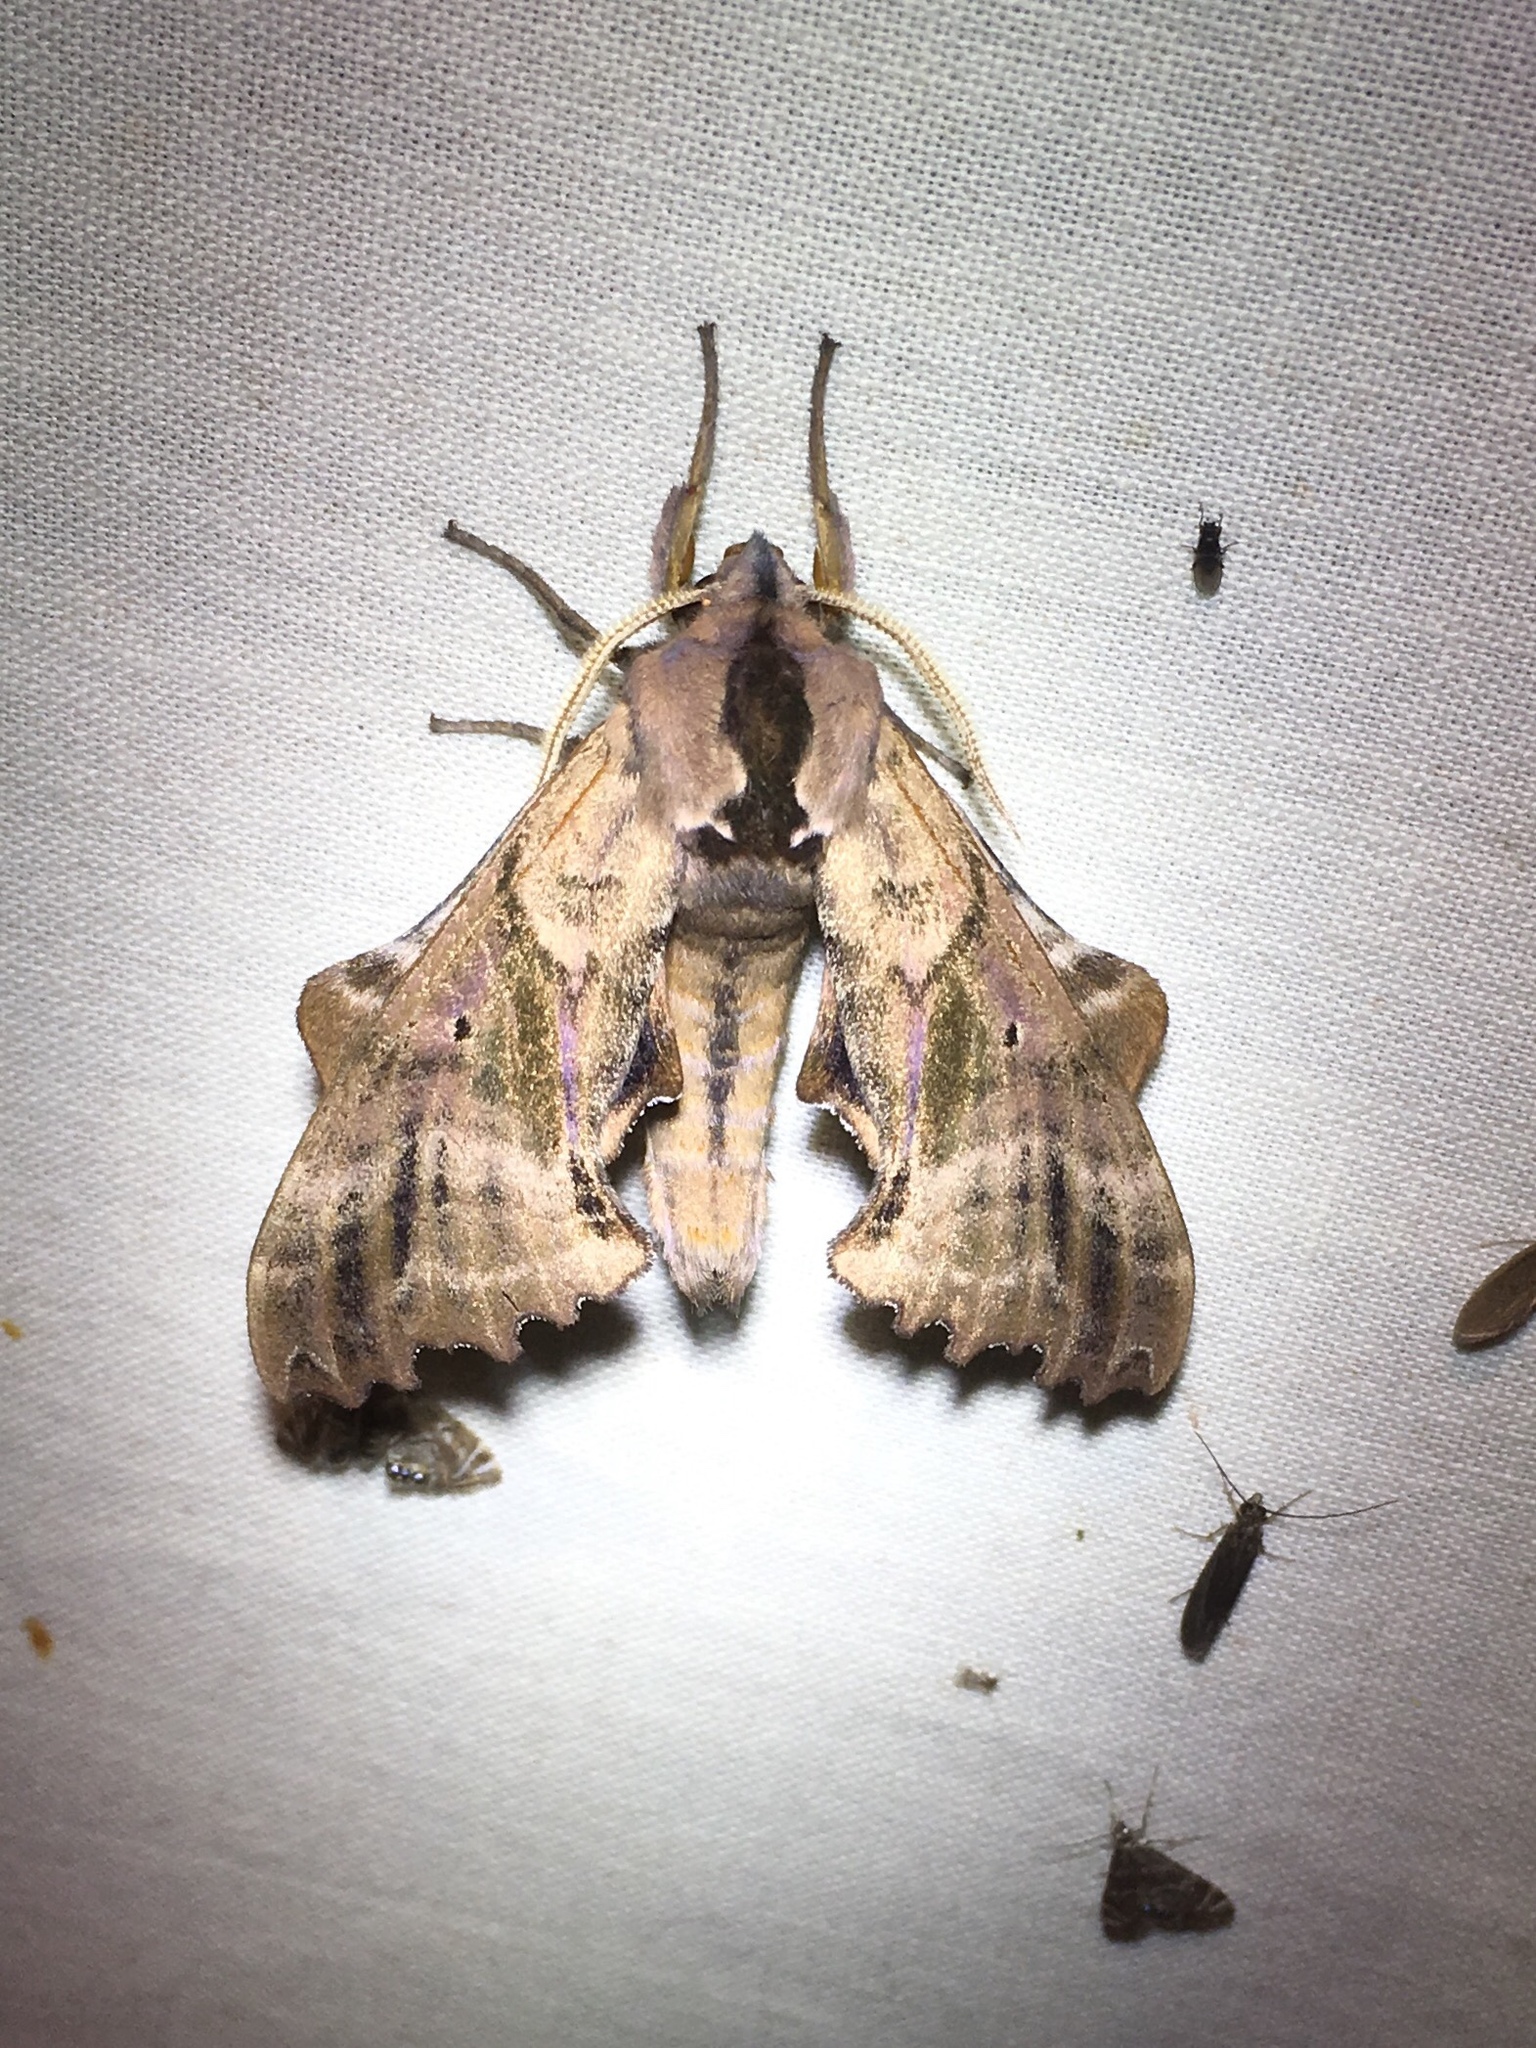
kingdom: Animalia
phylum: Arthropoda
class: Insecta
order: Lepidoptera
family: Sphingidae
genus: Paonias
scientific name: Paonias excaecata
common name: Blind-eyed sphinx
